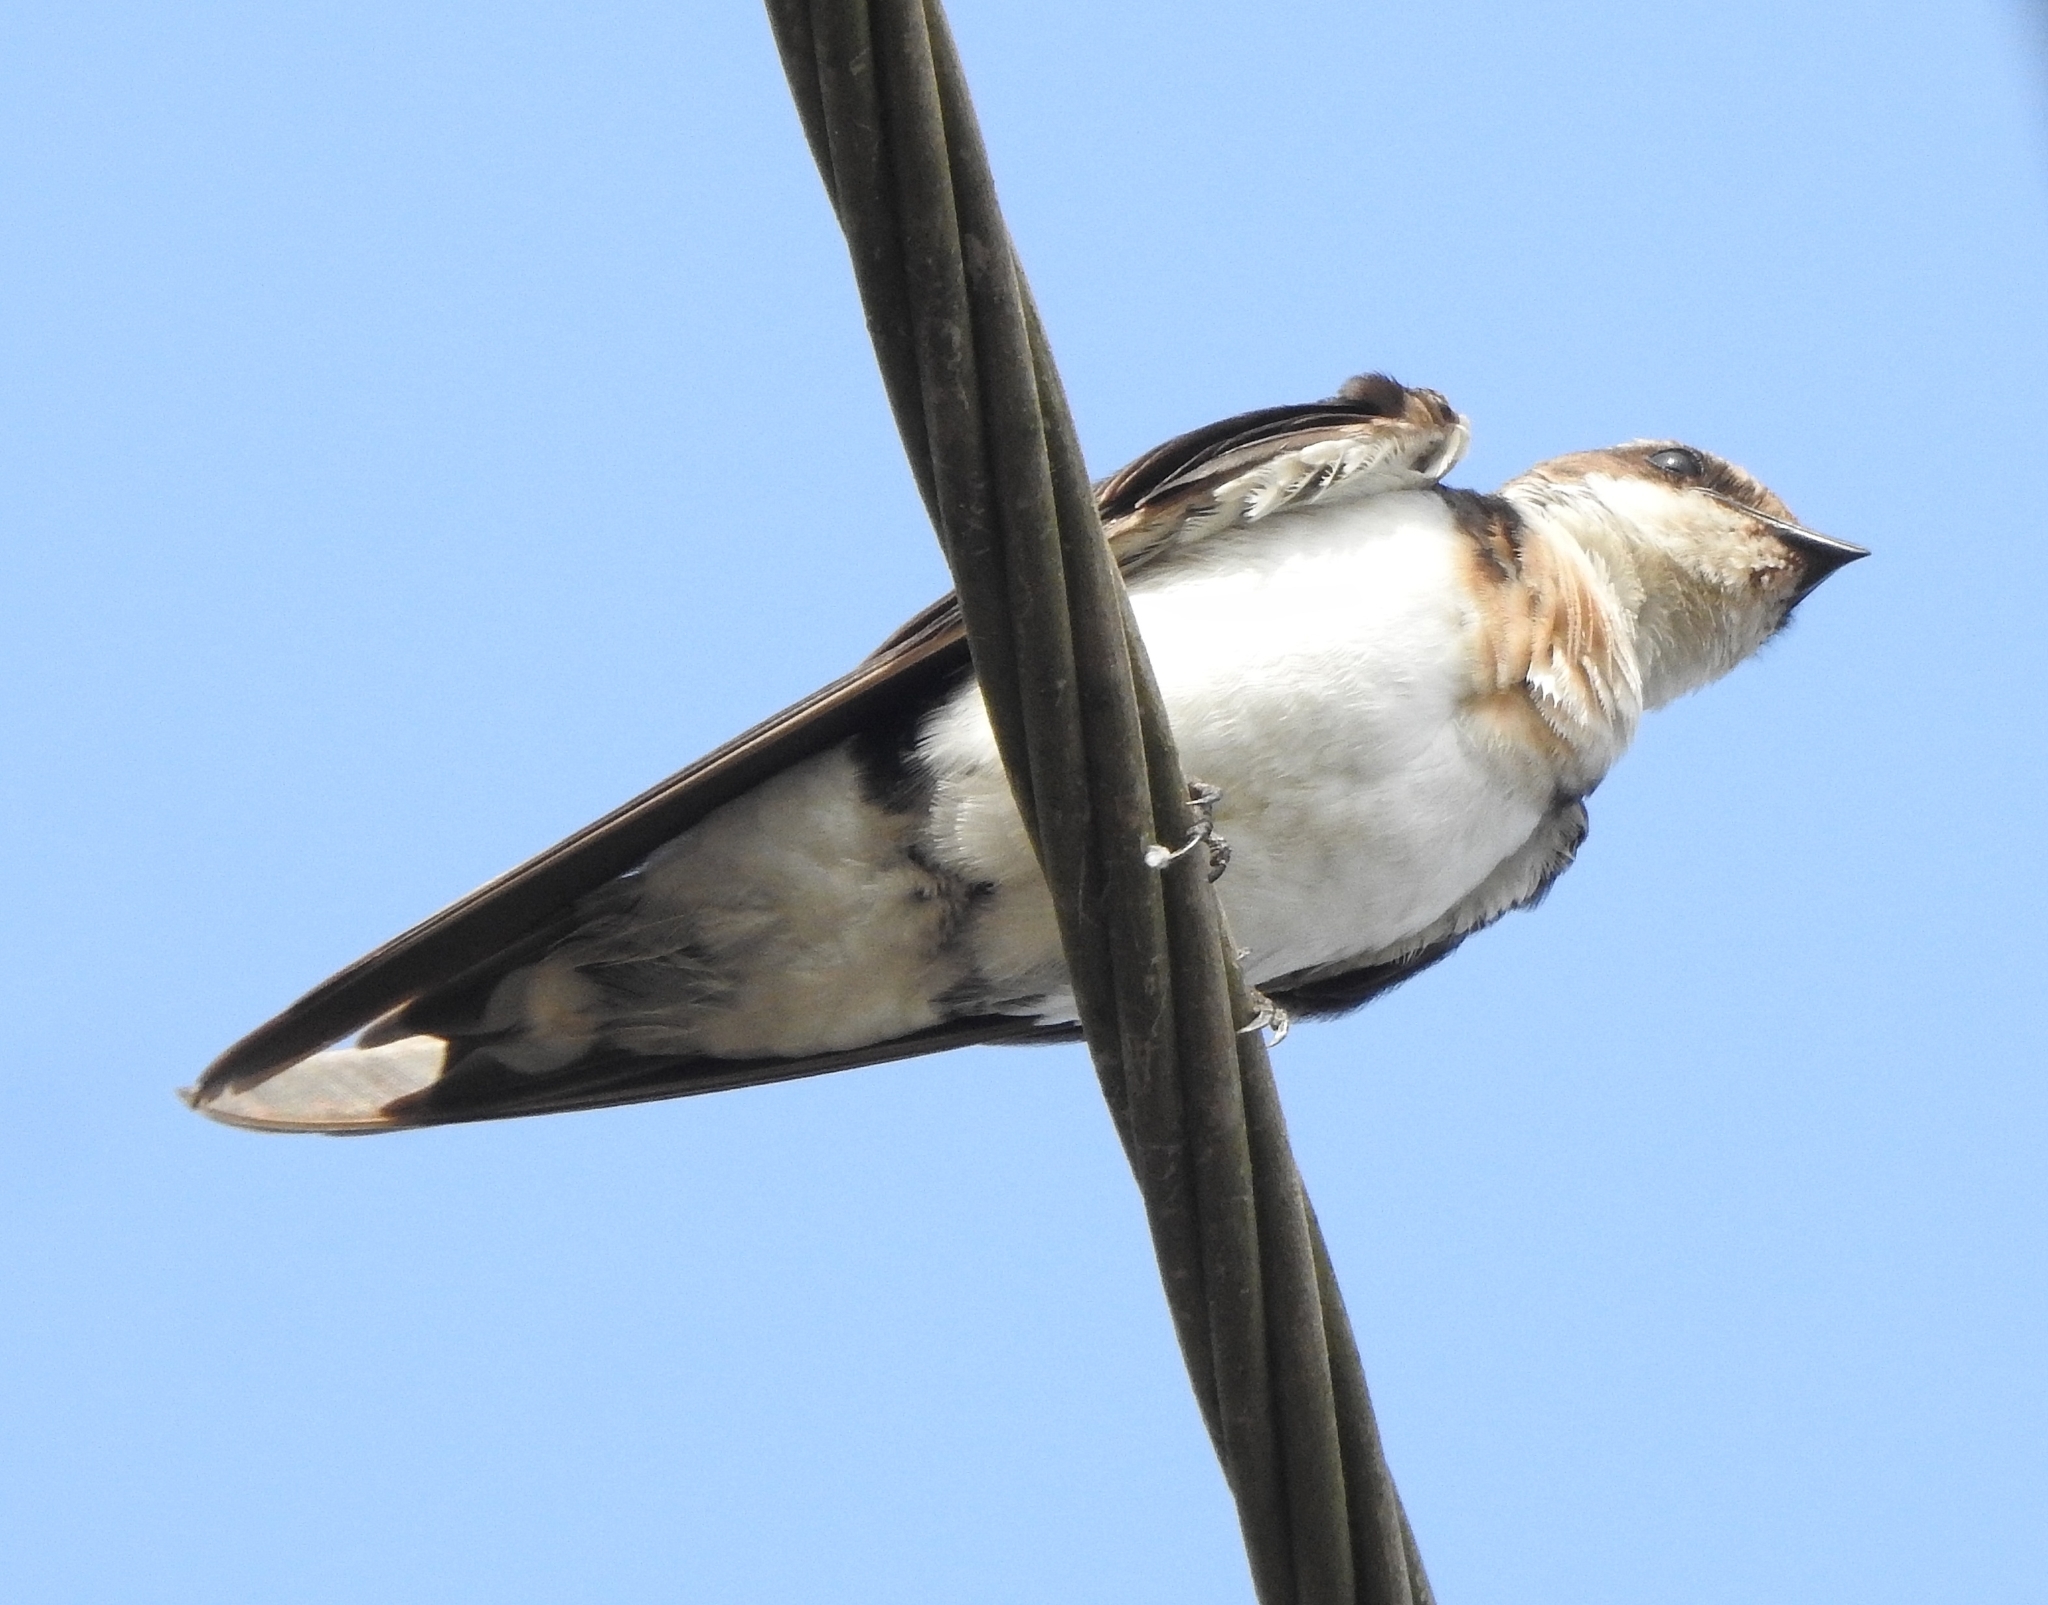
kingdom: Animalia
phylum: Chordata
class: Aves
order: Passeriformes
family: Hirundinidae
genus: Hirundo
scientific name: Hirundo smithii
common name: Wire-tailed swallow
